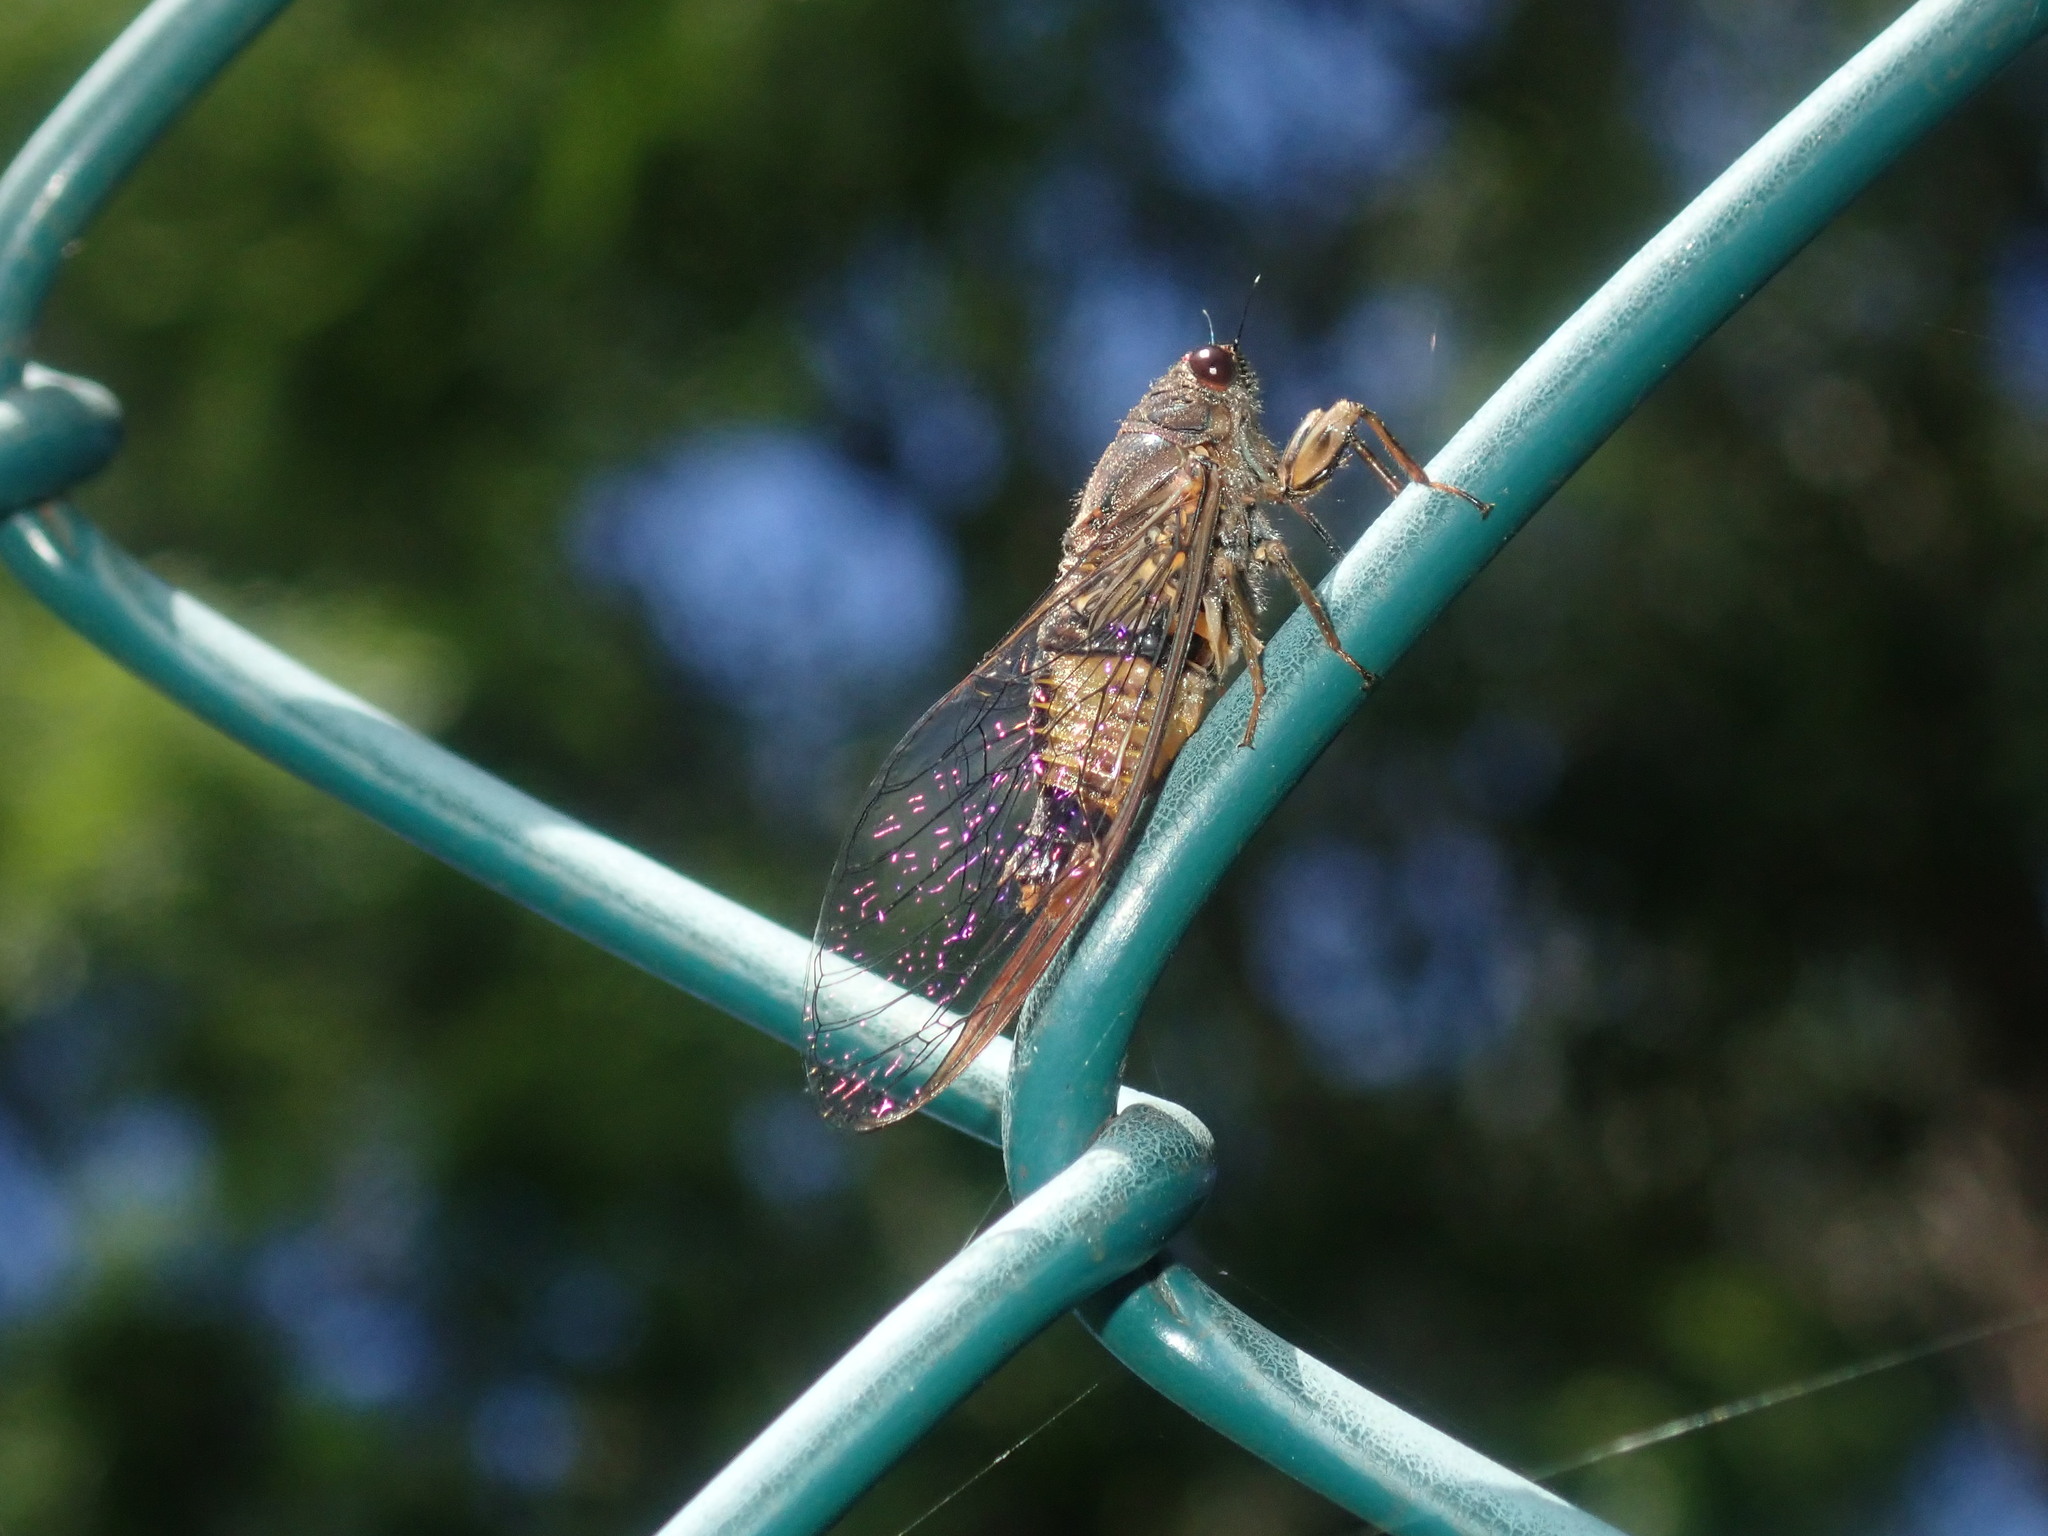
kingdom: Animalia
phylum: Arthropoda
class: Insecta
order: Hemiptera
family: Cicadidae
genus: Yoyetta
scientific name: Yoyetta repetens
